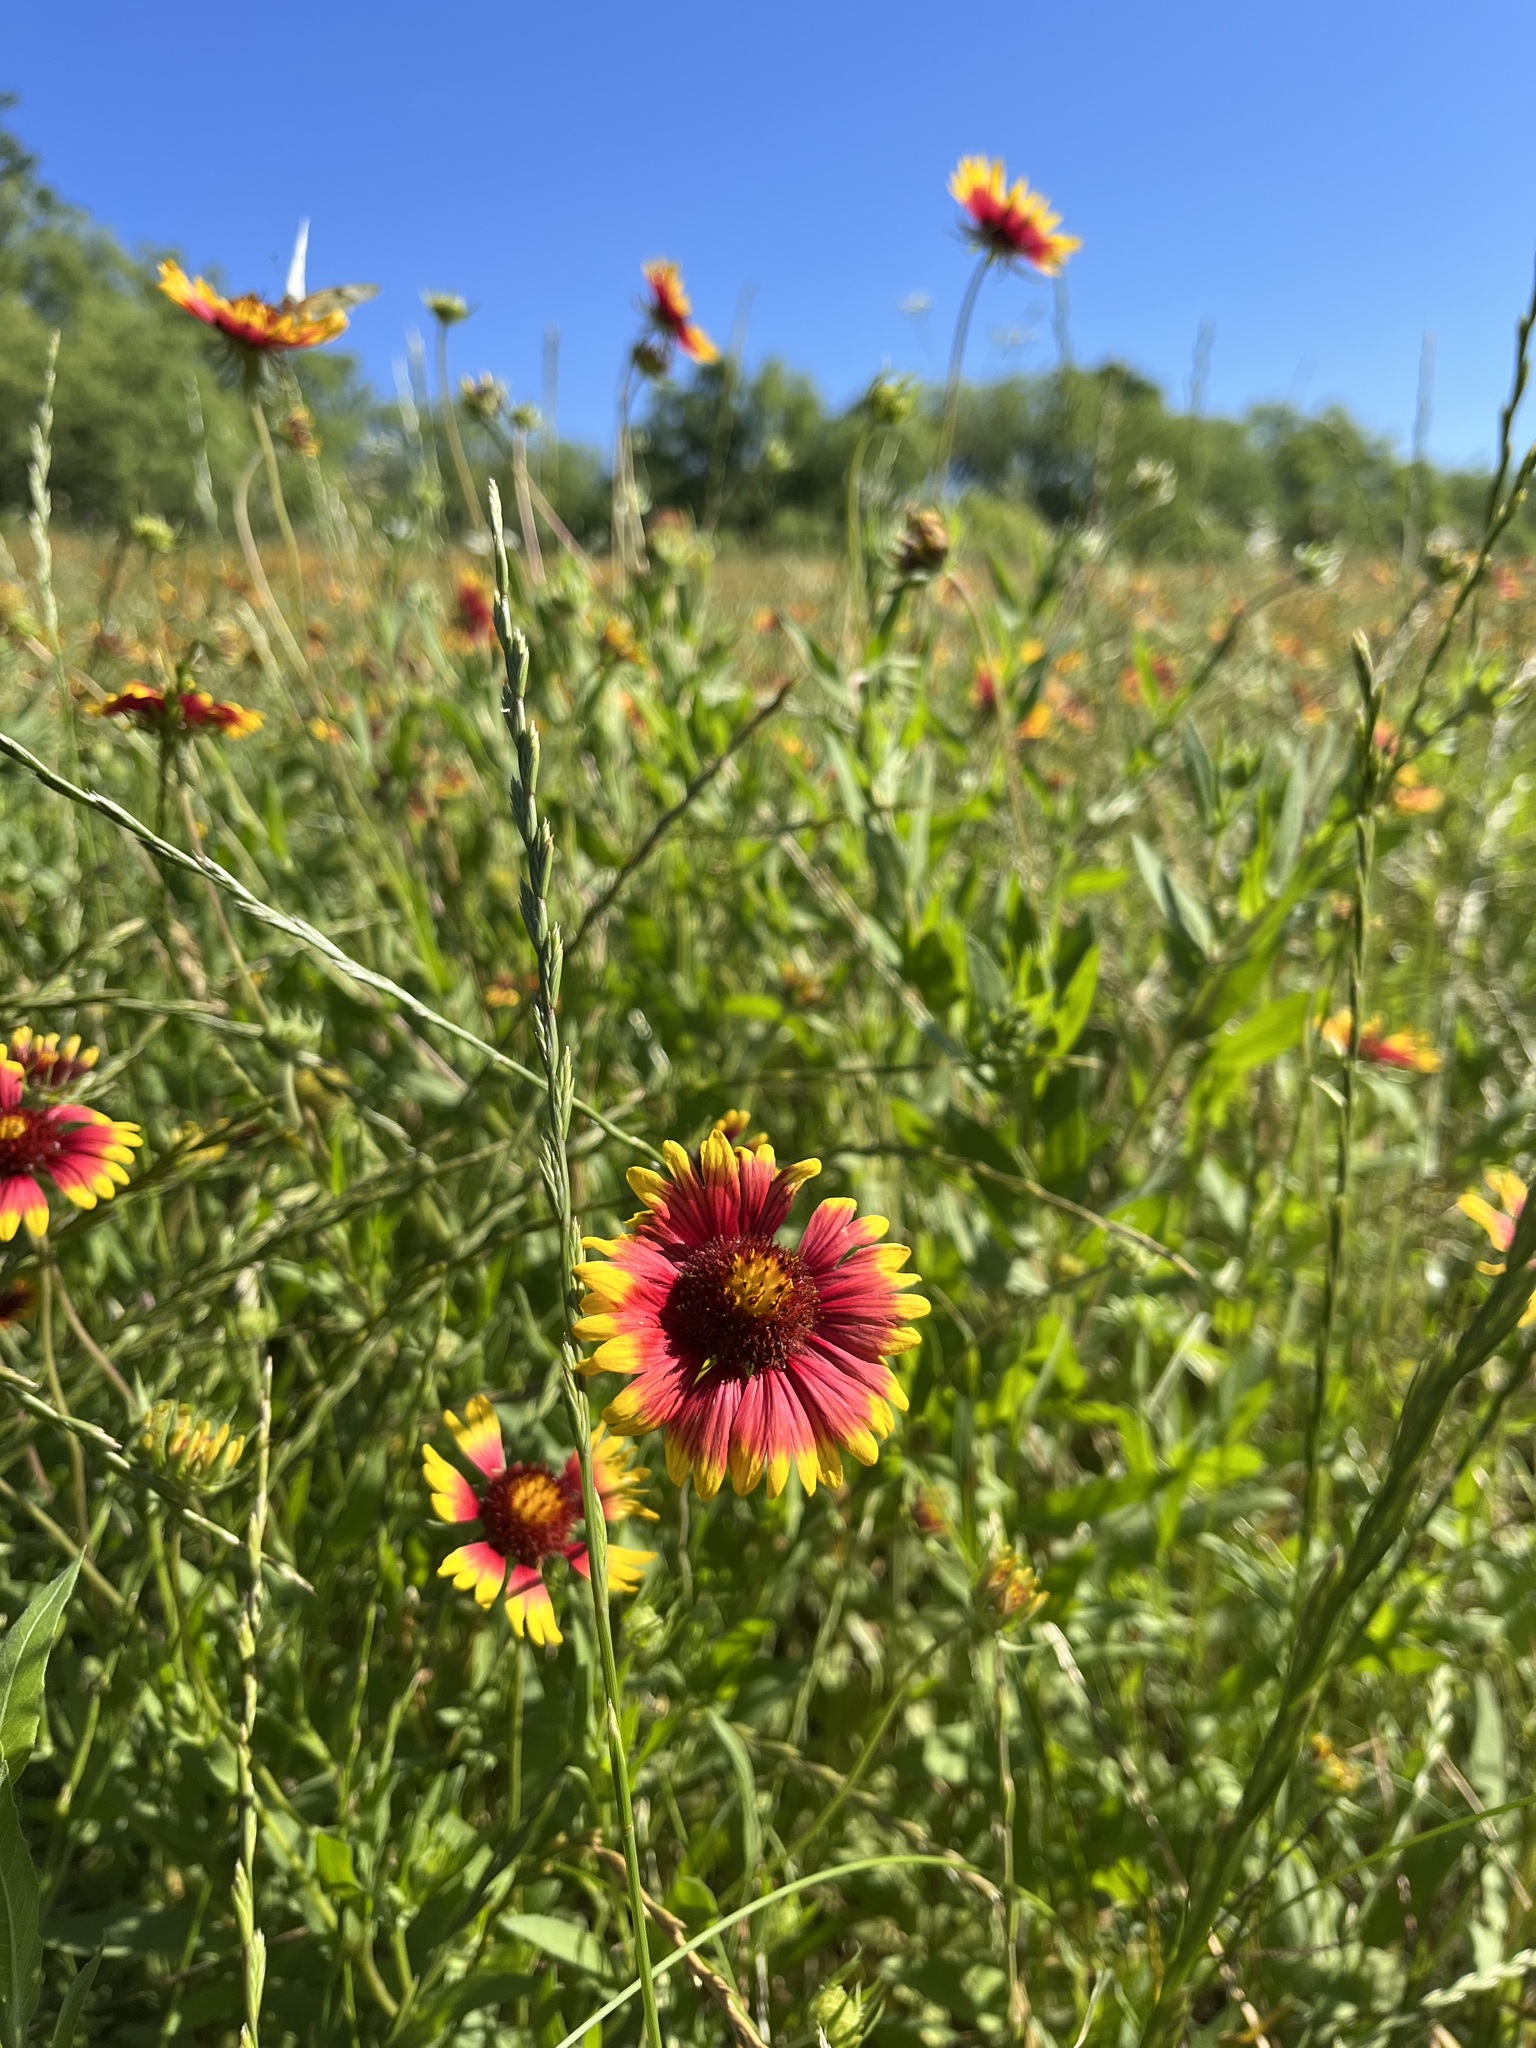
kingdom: Plantae
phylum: Tracheophyta
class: Magnoliopsida
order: Asterales
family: Asteraceae
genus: Gaillardia
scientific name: Gaillardia pulchella
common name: Firewheel
